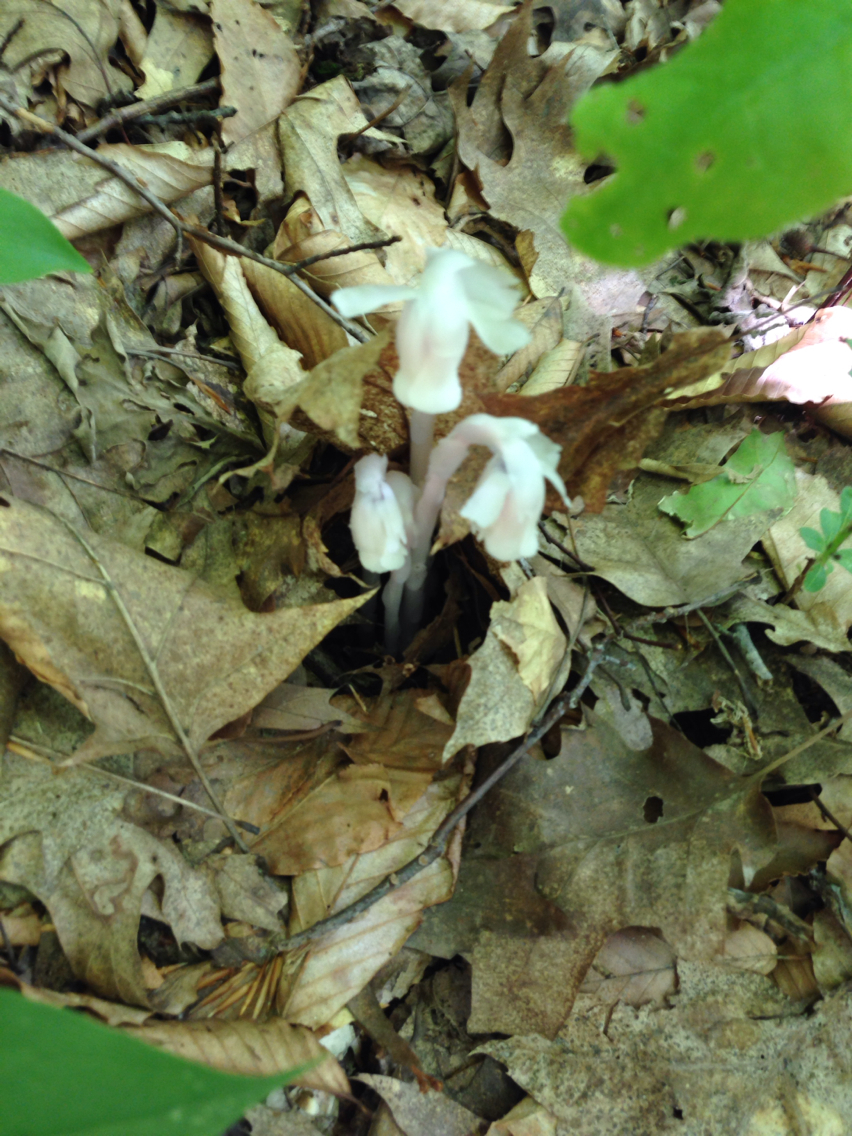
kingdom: Plantae
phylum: Tracheophyta
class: Magnoliopsida
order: Ericales
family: Ericaceae
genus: Monotropa
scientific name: Monotropa uniflora
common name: Convulsion root
